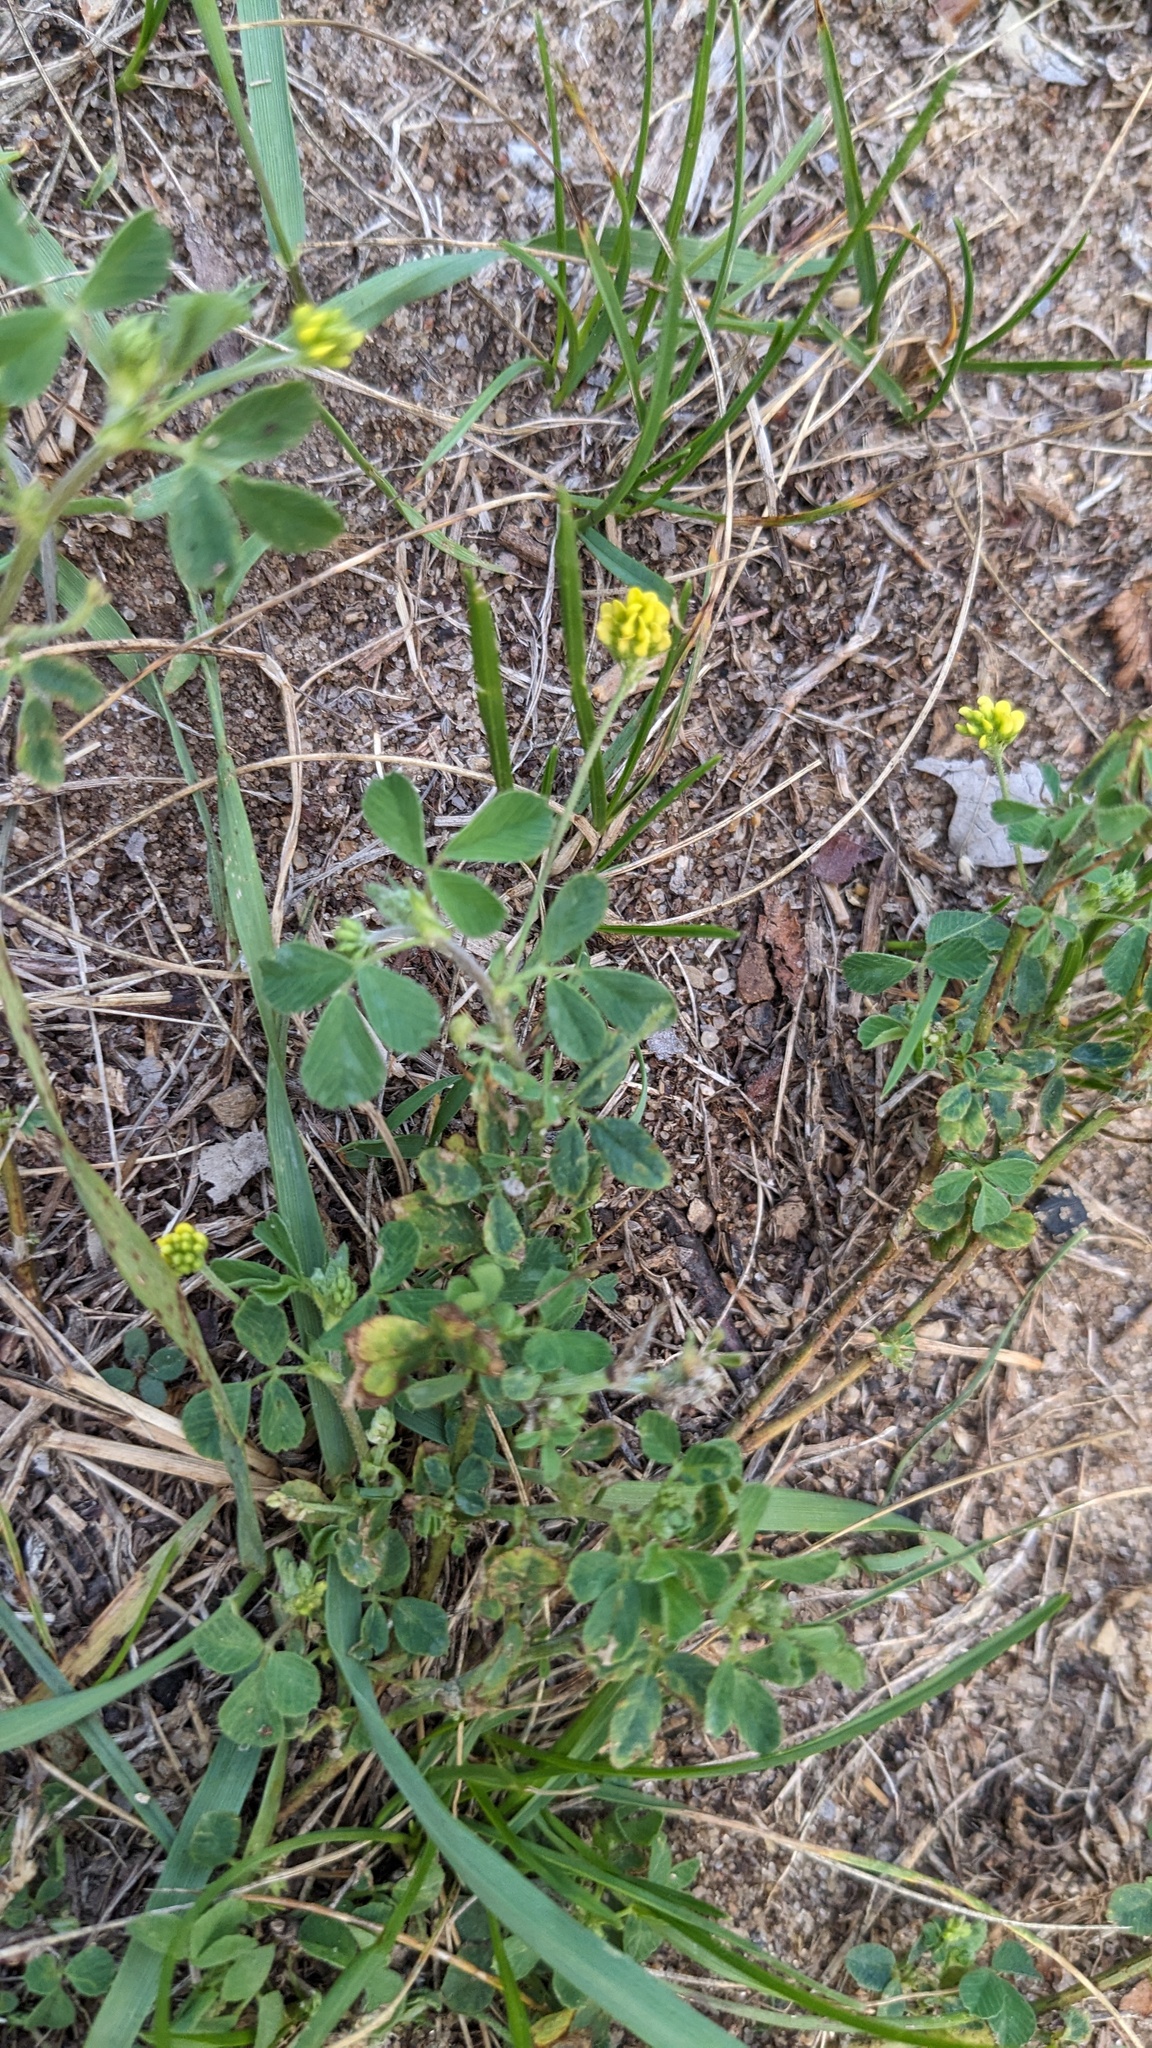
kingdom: Plantae
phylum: Tracheophyta
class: Magnoliopsida
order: Fabales
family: Fabaceae
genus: Medicago
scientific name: Medicago lupulina
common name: Black medick
